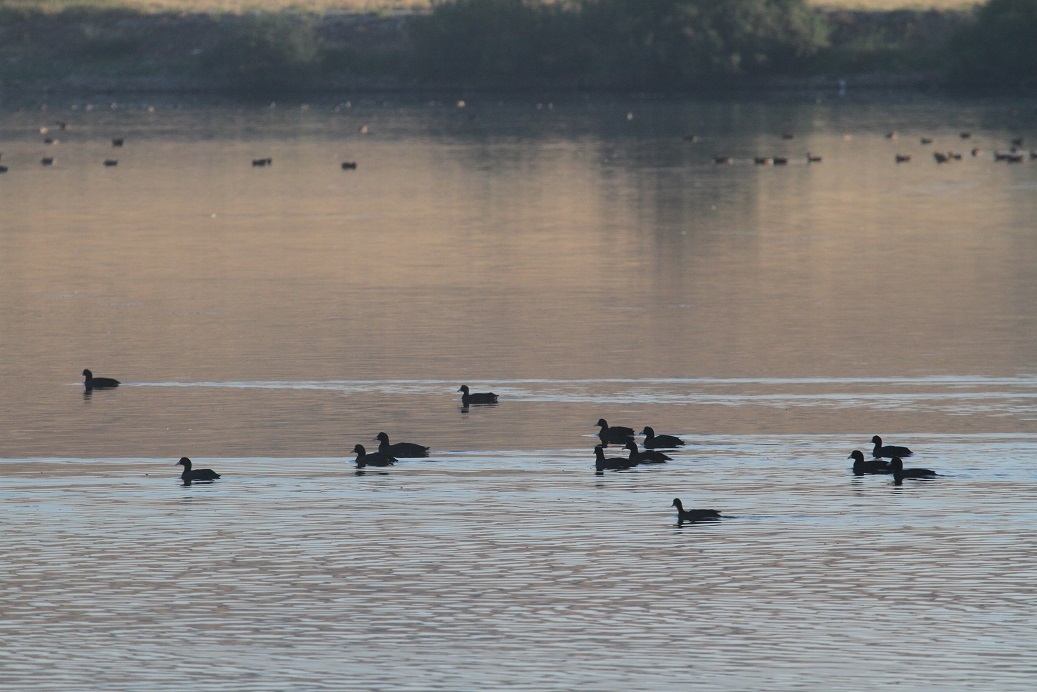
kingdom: Animalia
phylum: Chordata
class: Aves
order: Gruiformes
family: Rallidae
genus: Fulica
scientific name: Fulica atra
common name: Eurasian coot
